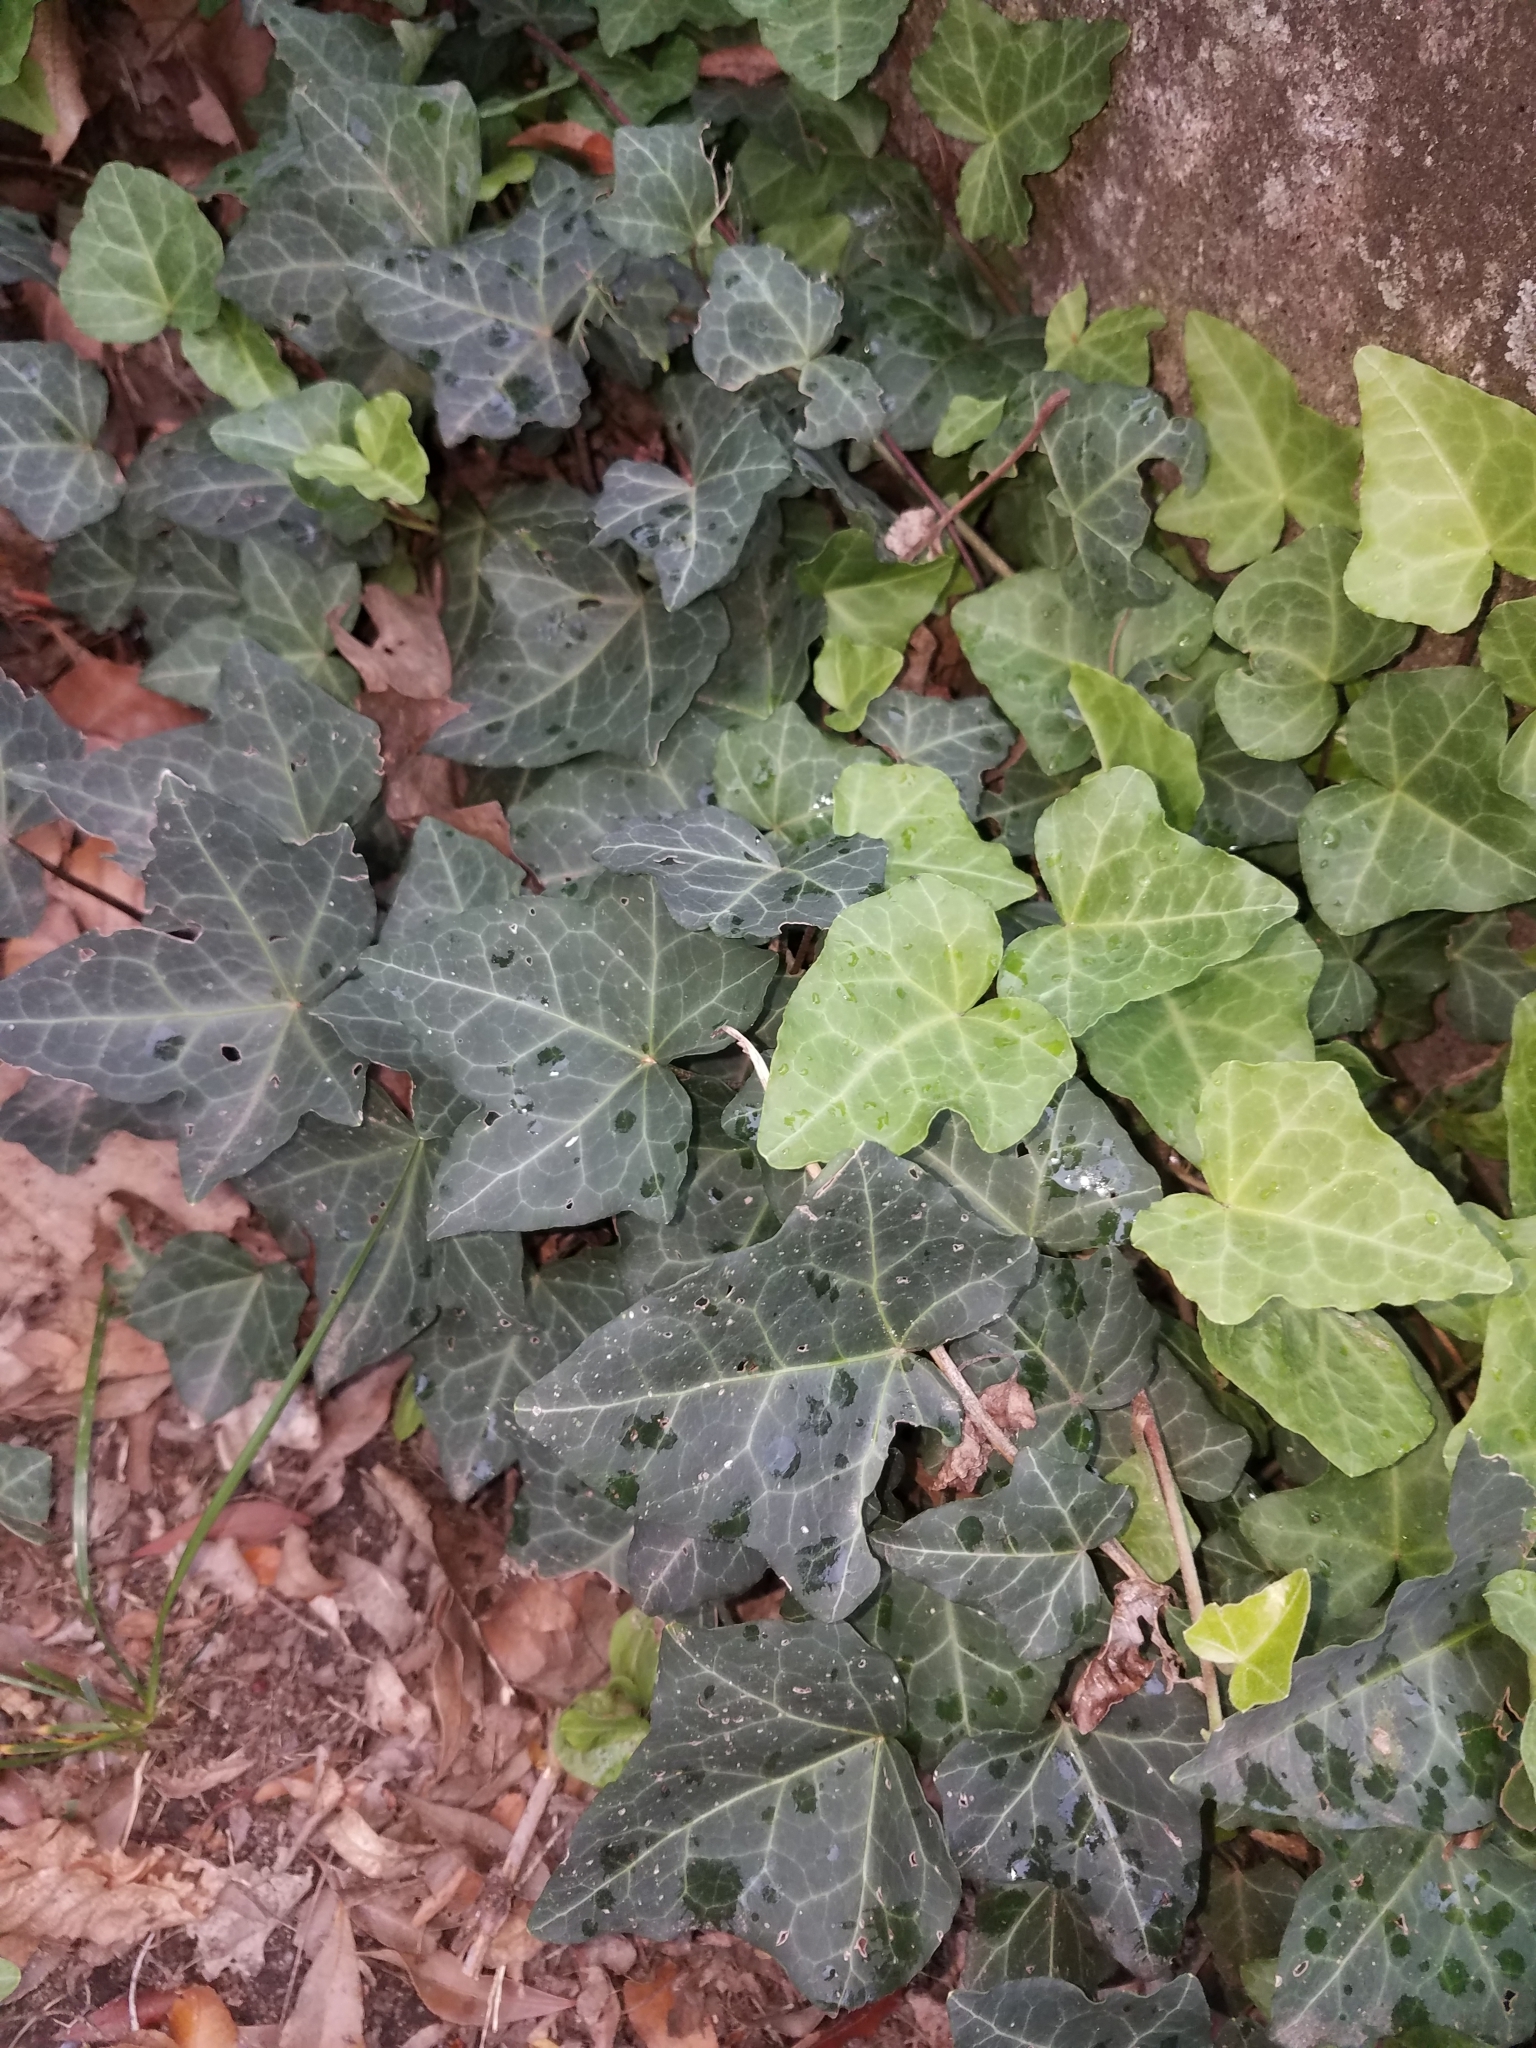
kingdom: Plantae
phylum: Tracheophyta
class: Magnoliopsida
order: Apiales
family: Araliaceae
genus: Hedera
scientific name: Hedera helix
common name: Ivy
